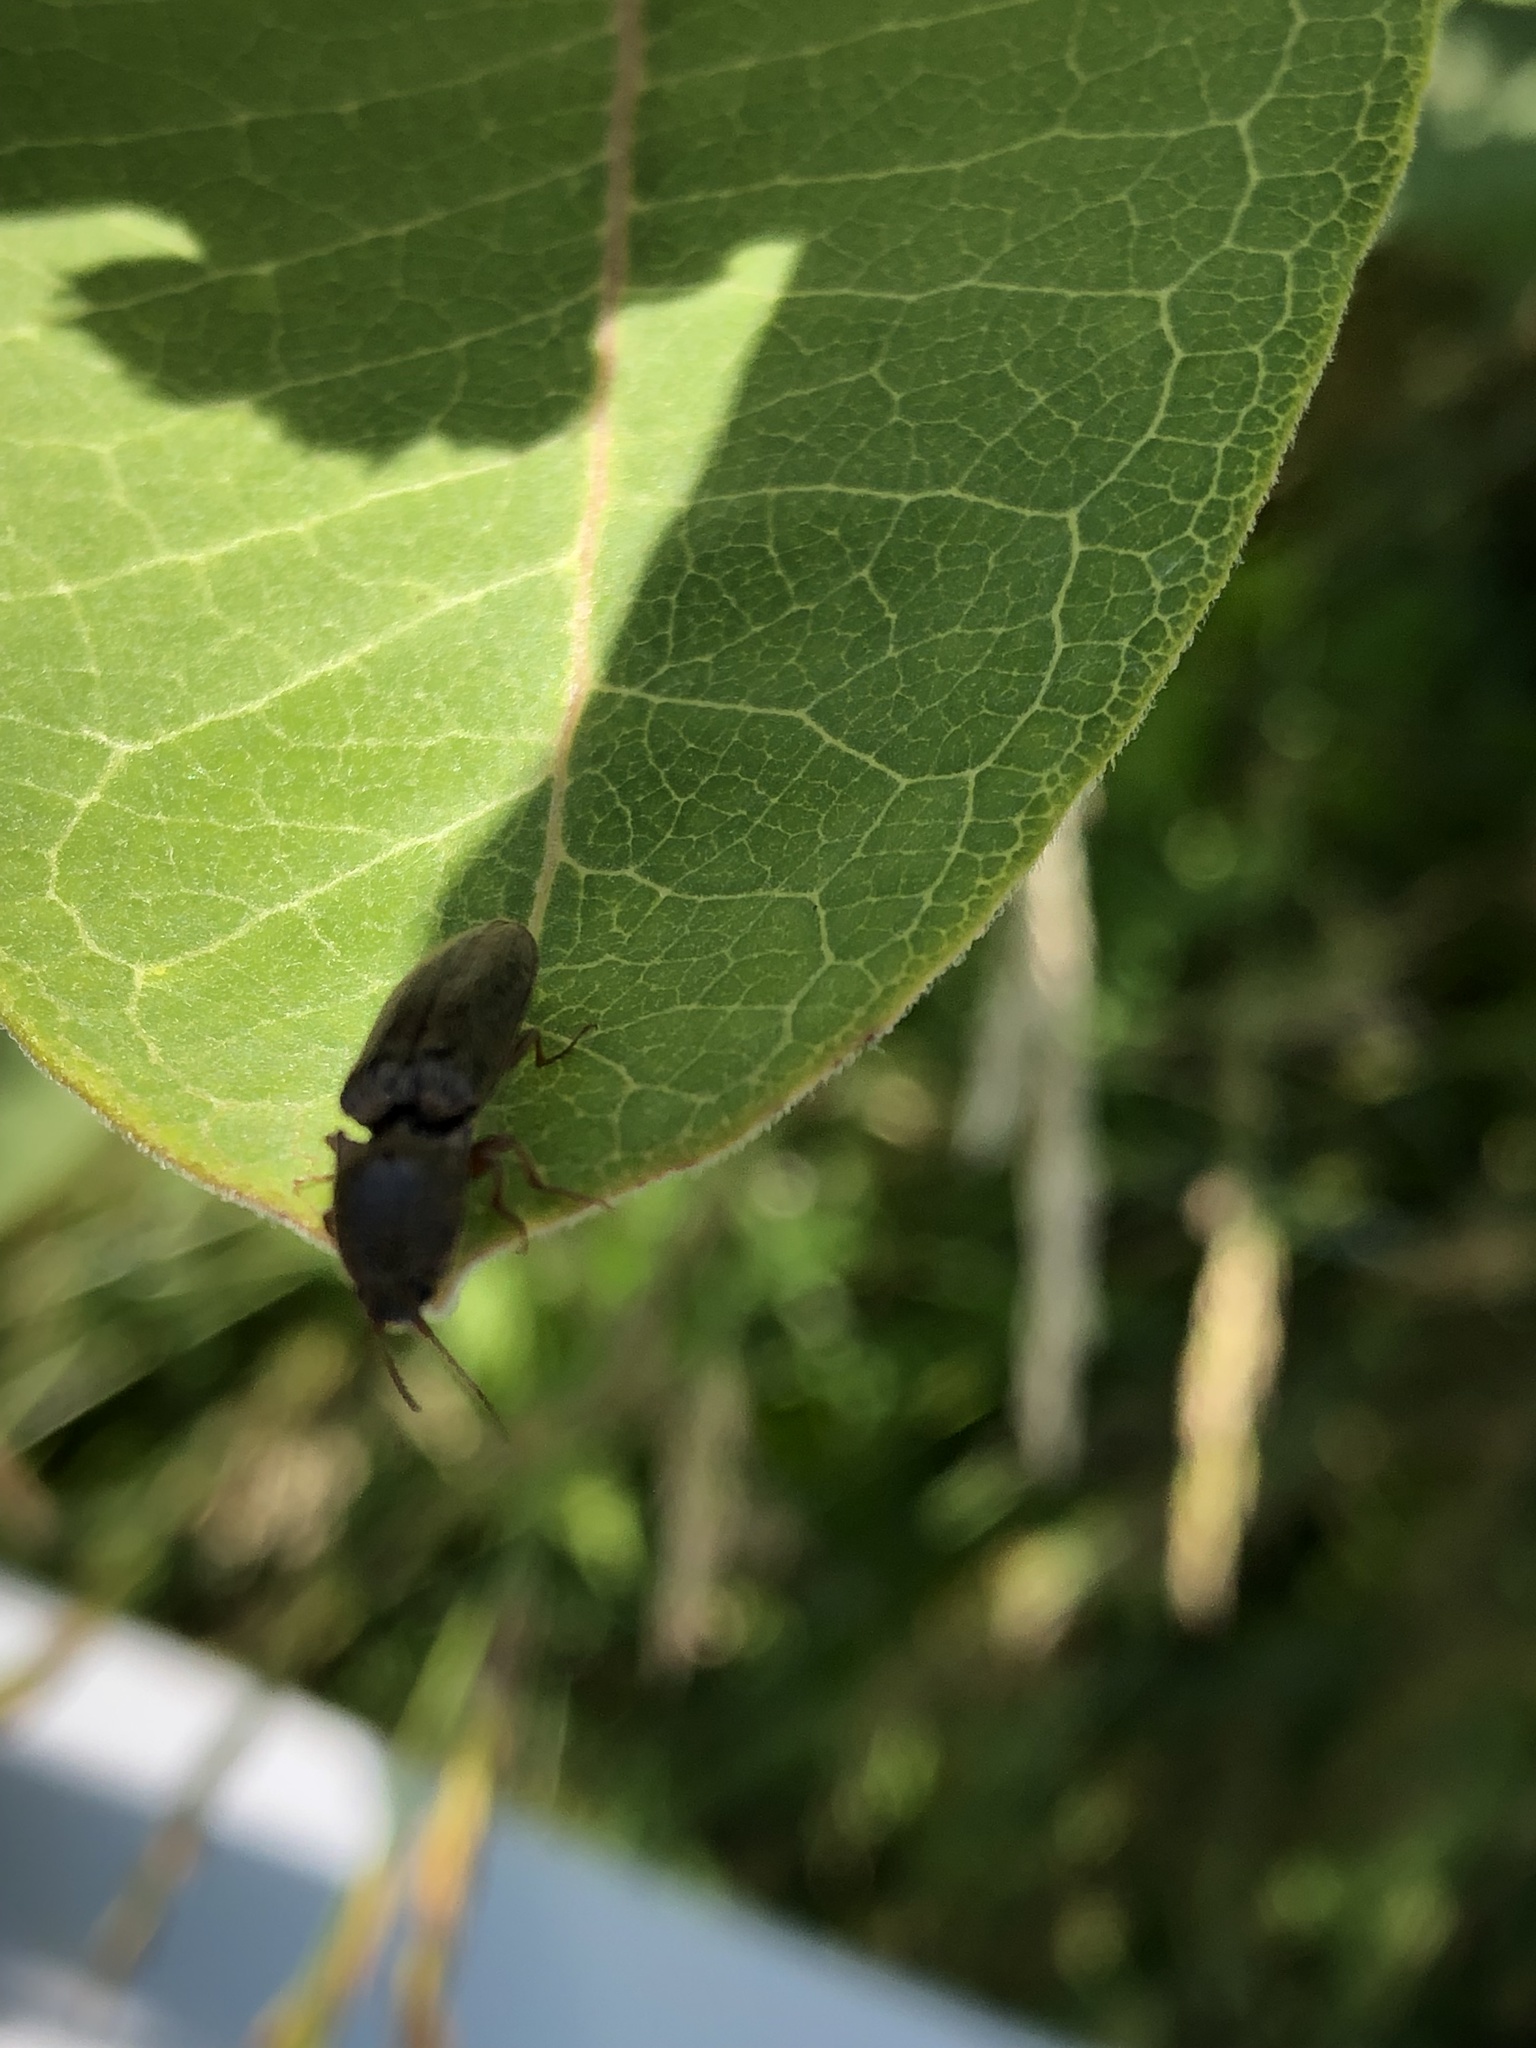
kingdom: Animalia
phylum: Arthropoda
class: Insecta
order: Coleoptera
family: Elateridae
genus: Gambrinus
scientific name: Gambrinus griseus
